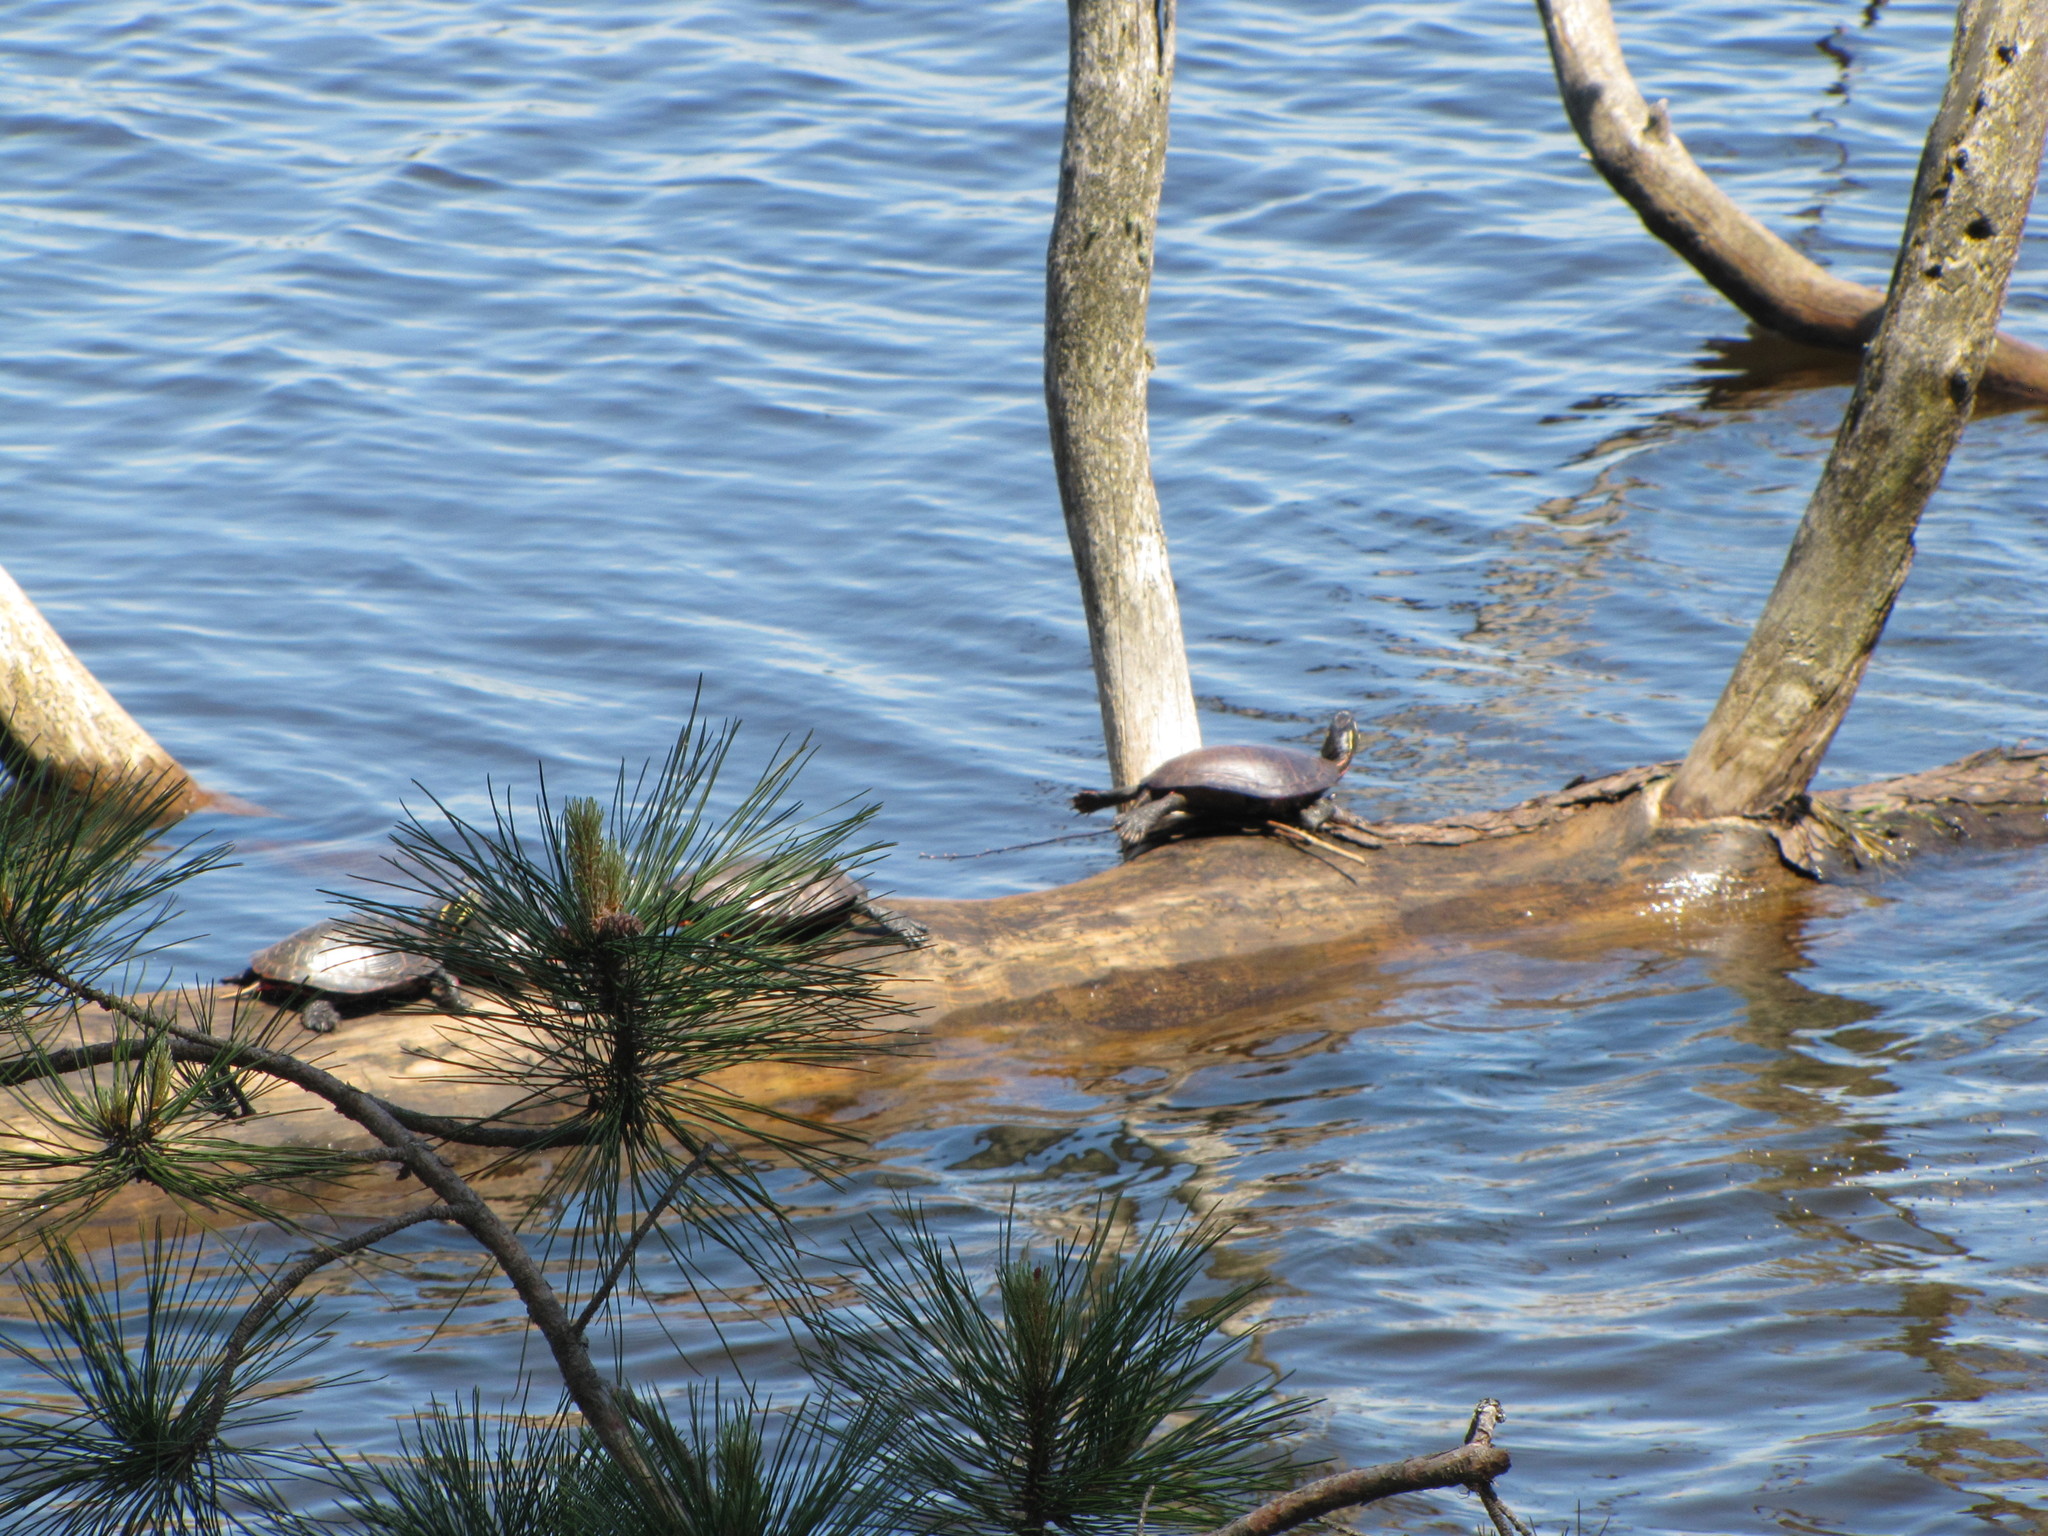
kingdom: Animalia
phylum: Chordata
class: Testudines
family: Emydidae
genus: Chrysemys
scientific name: Chrysemys picta
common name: Painted turtle
